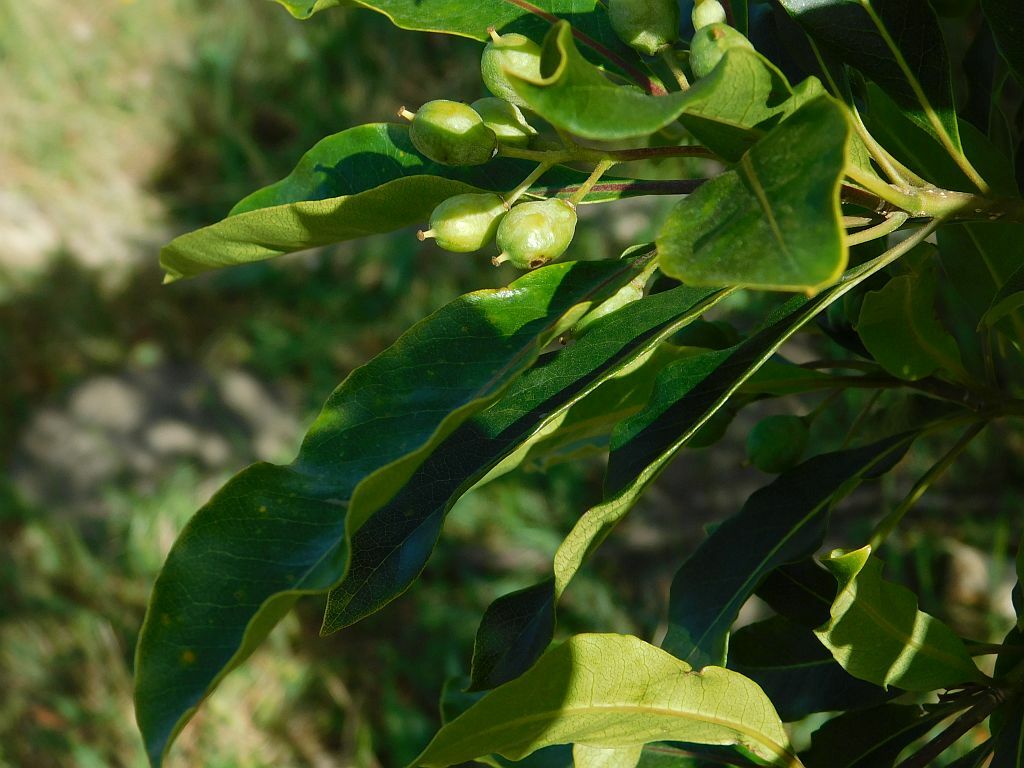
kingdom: Plantae
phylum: Tracheophyta
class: Magnoliopsida
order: Apiales
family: Pittosporaceae
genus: Pittosporum
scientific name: Pittosporum undulatum
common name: Australian cheesewood
